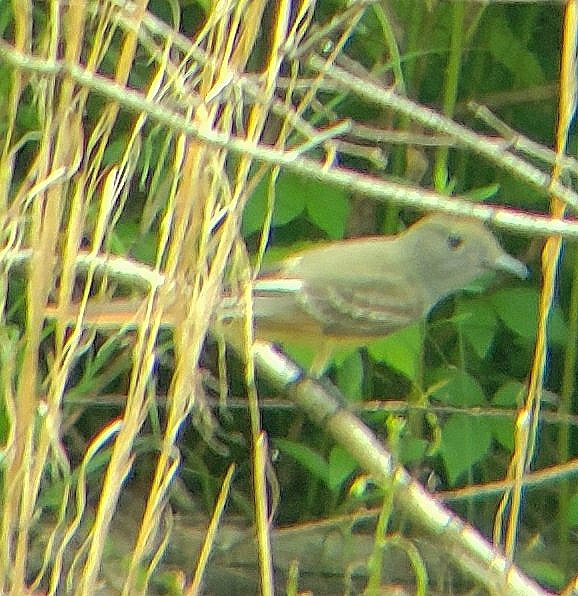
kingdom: Animalia
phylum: Chordata
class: Aves
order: Passeriformes
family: Tyrannidae
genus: Myiarchus
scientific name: Myiarchus crinitus
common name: Great crested flycatcher
